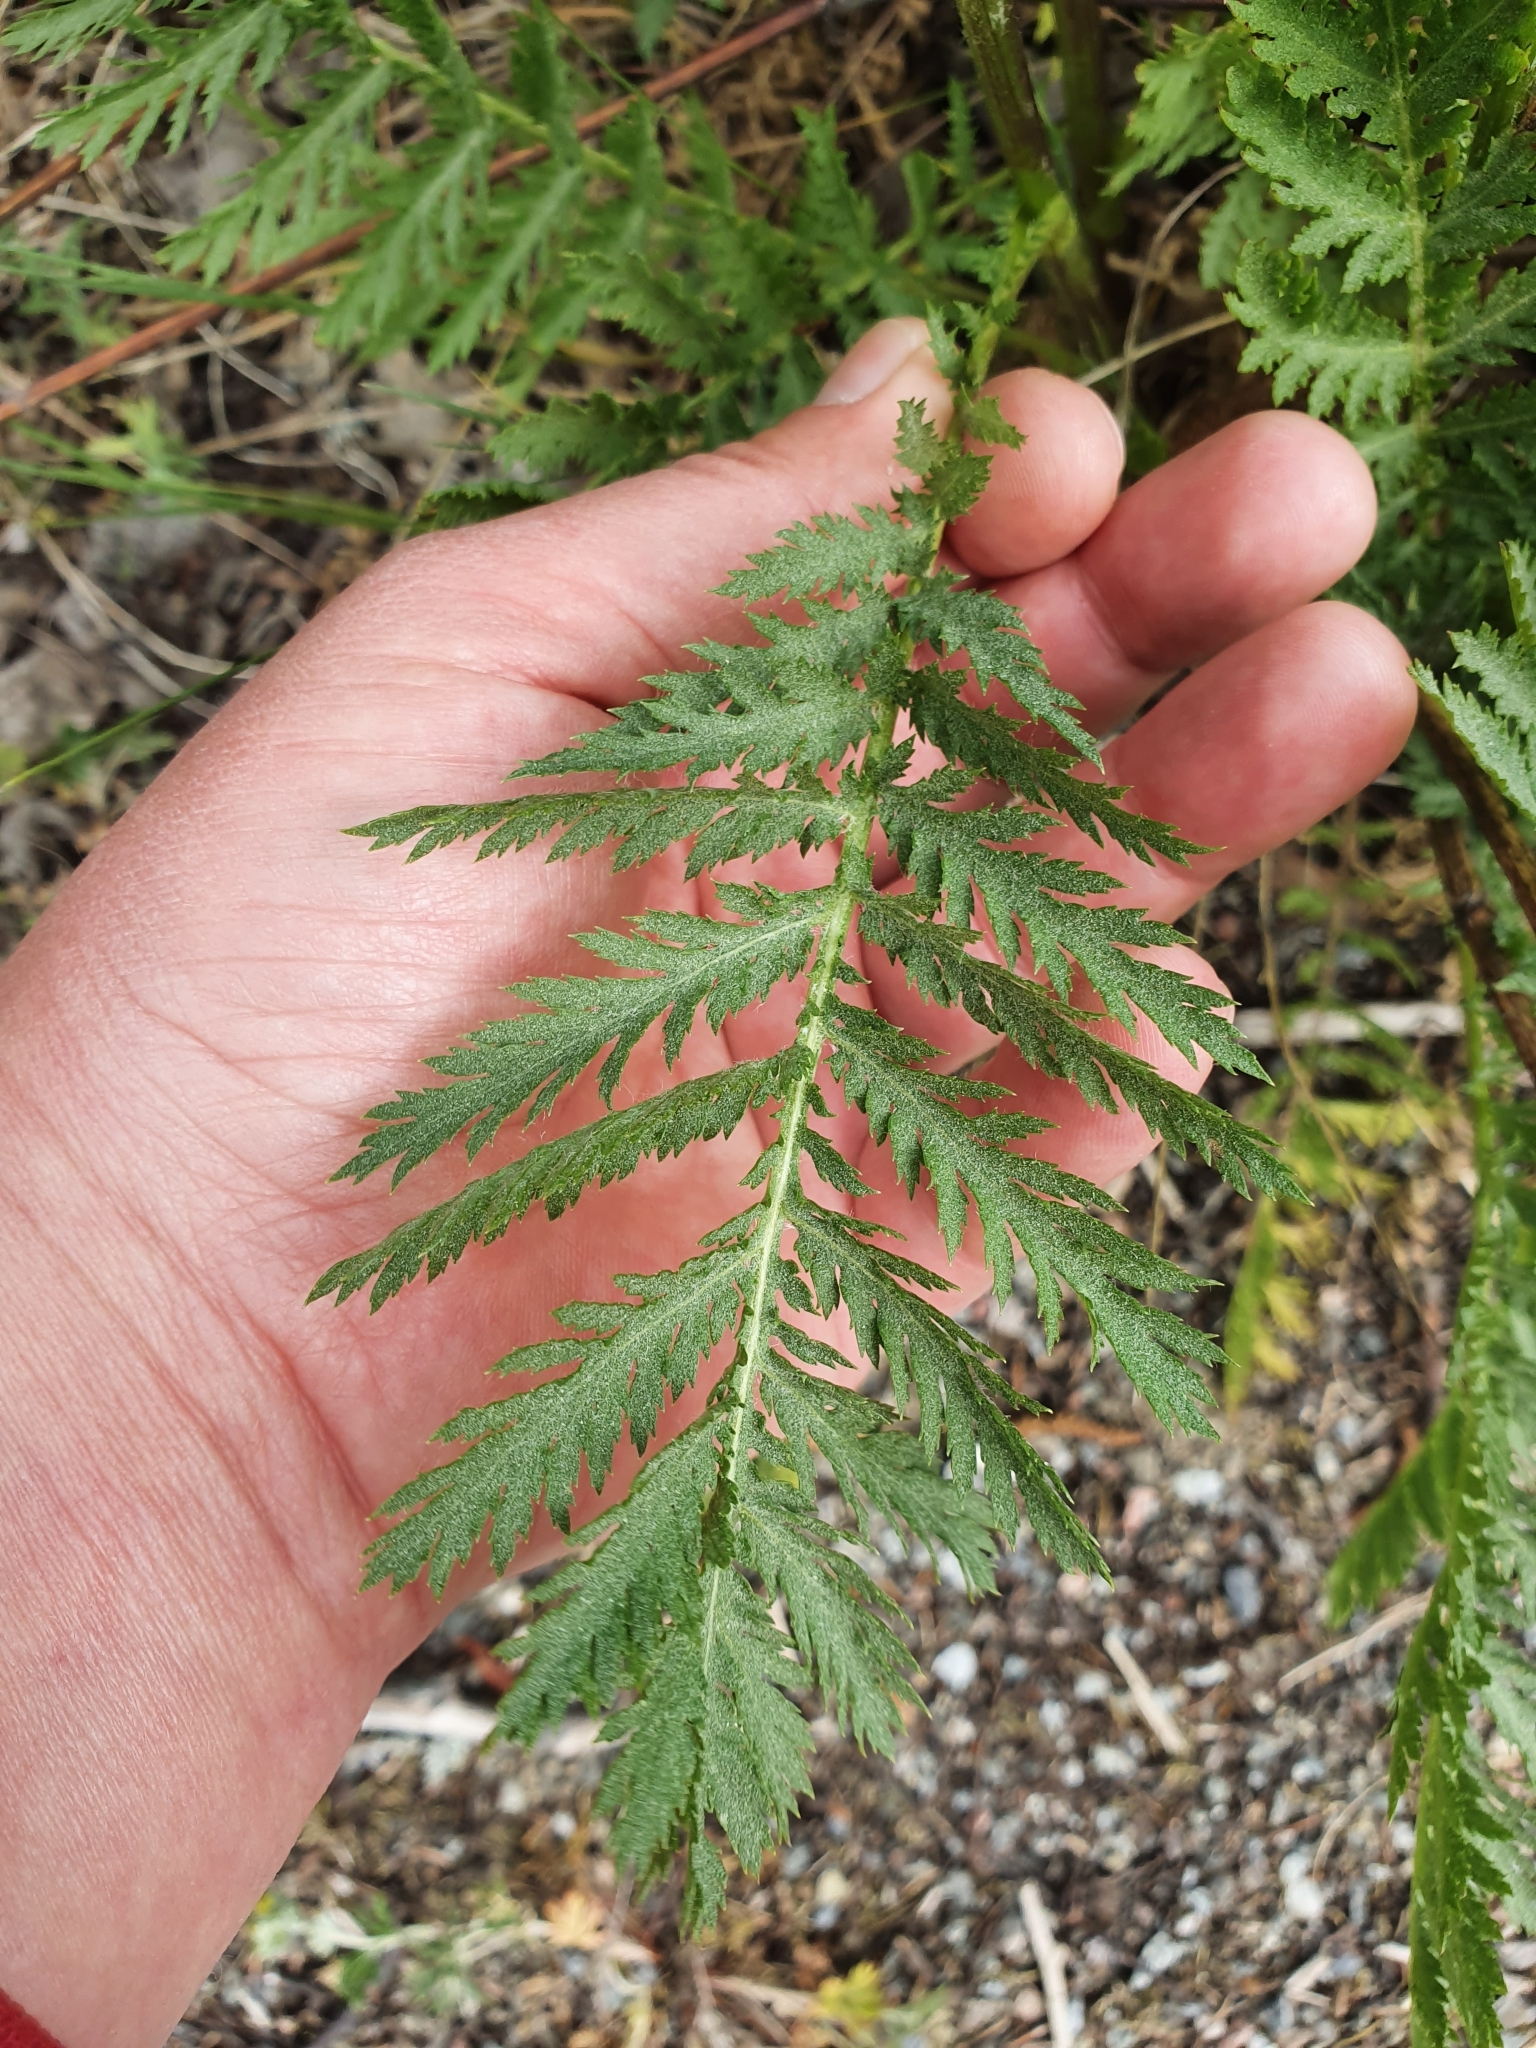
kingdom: Plantae
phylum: Tracheophyta
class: Magnoliopsida
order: Asterales
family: Asteraceae
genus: Tanacetum
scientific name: Tanacetum vulgare
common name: Common tansy
